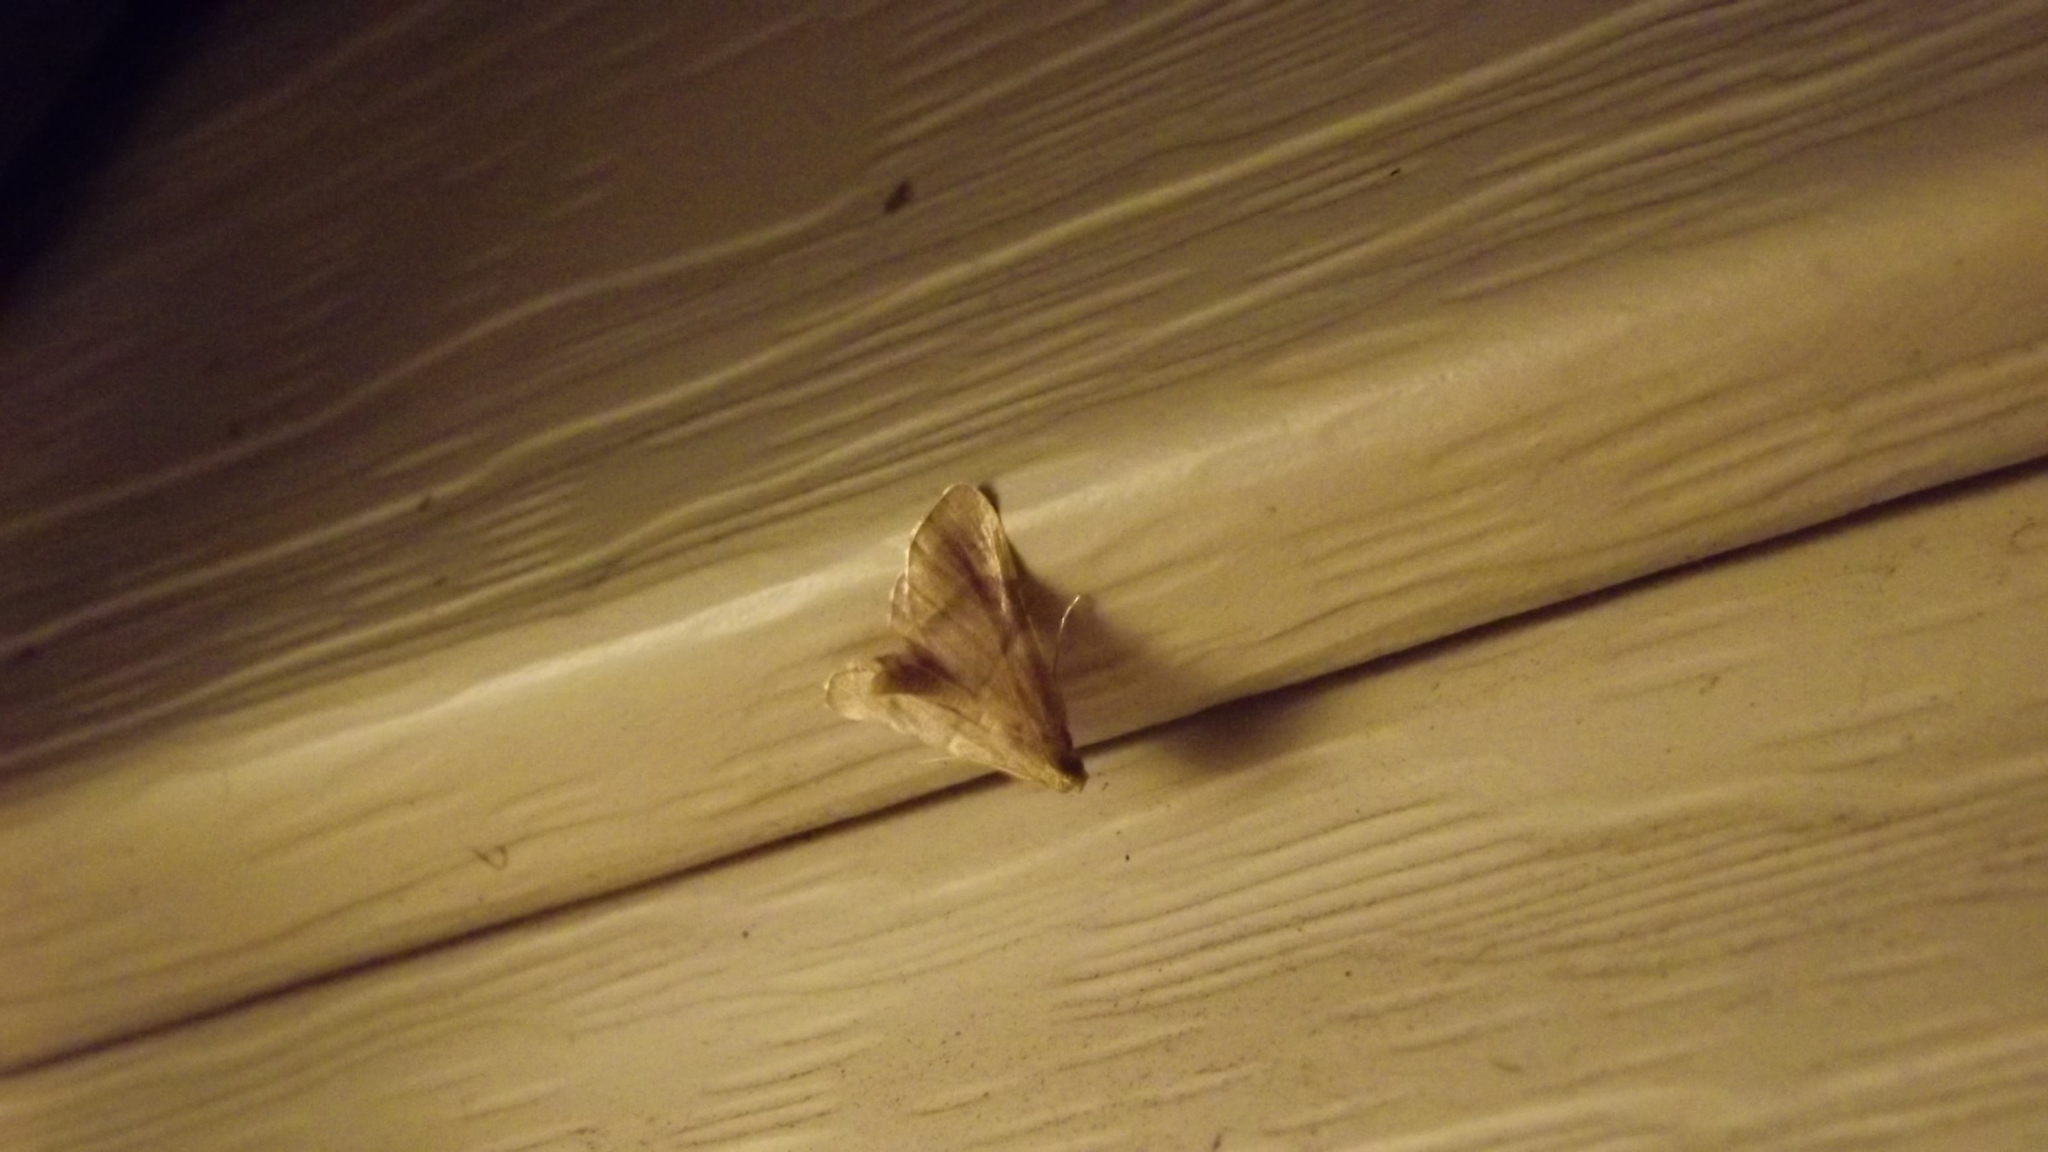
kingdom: Animalia
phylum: Arthropoda
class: Insecta
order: Lepidoptera
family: Pyralidae
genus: Hypsopygia
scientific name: Hypsopygia olinalis
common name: Yellow-fringed dolichomia moth
